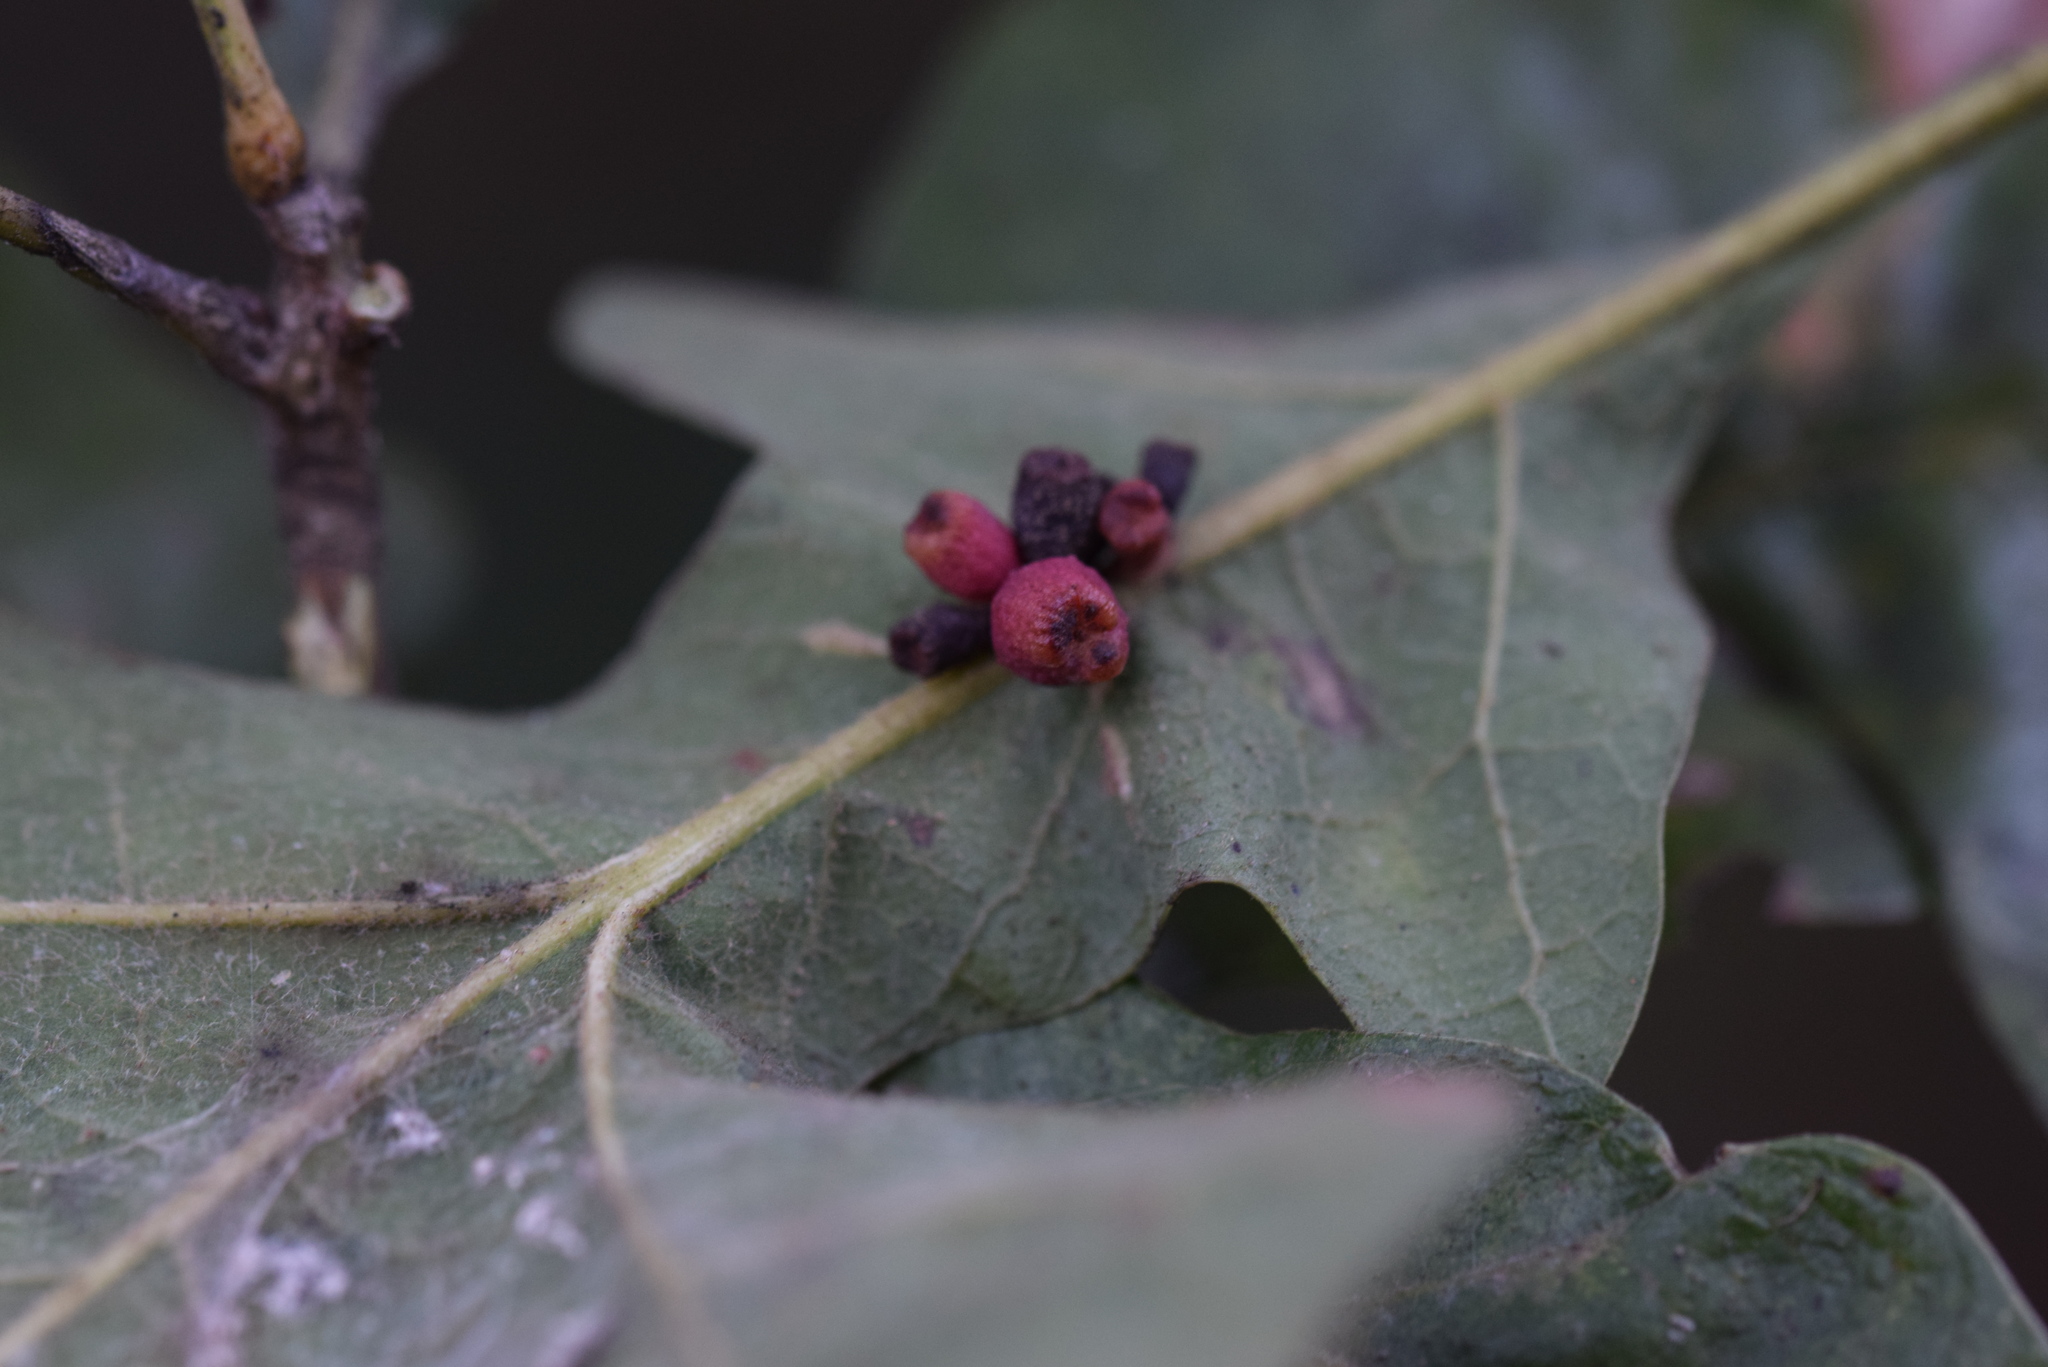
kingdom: Animalia
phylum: Arthropoda
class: Insecta
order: Hymenoptera
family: Cynipidae
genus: Andricus
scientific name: Andricus lustrans
